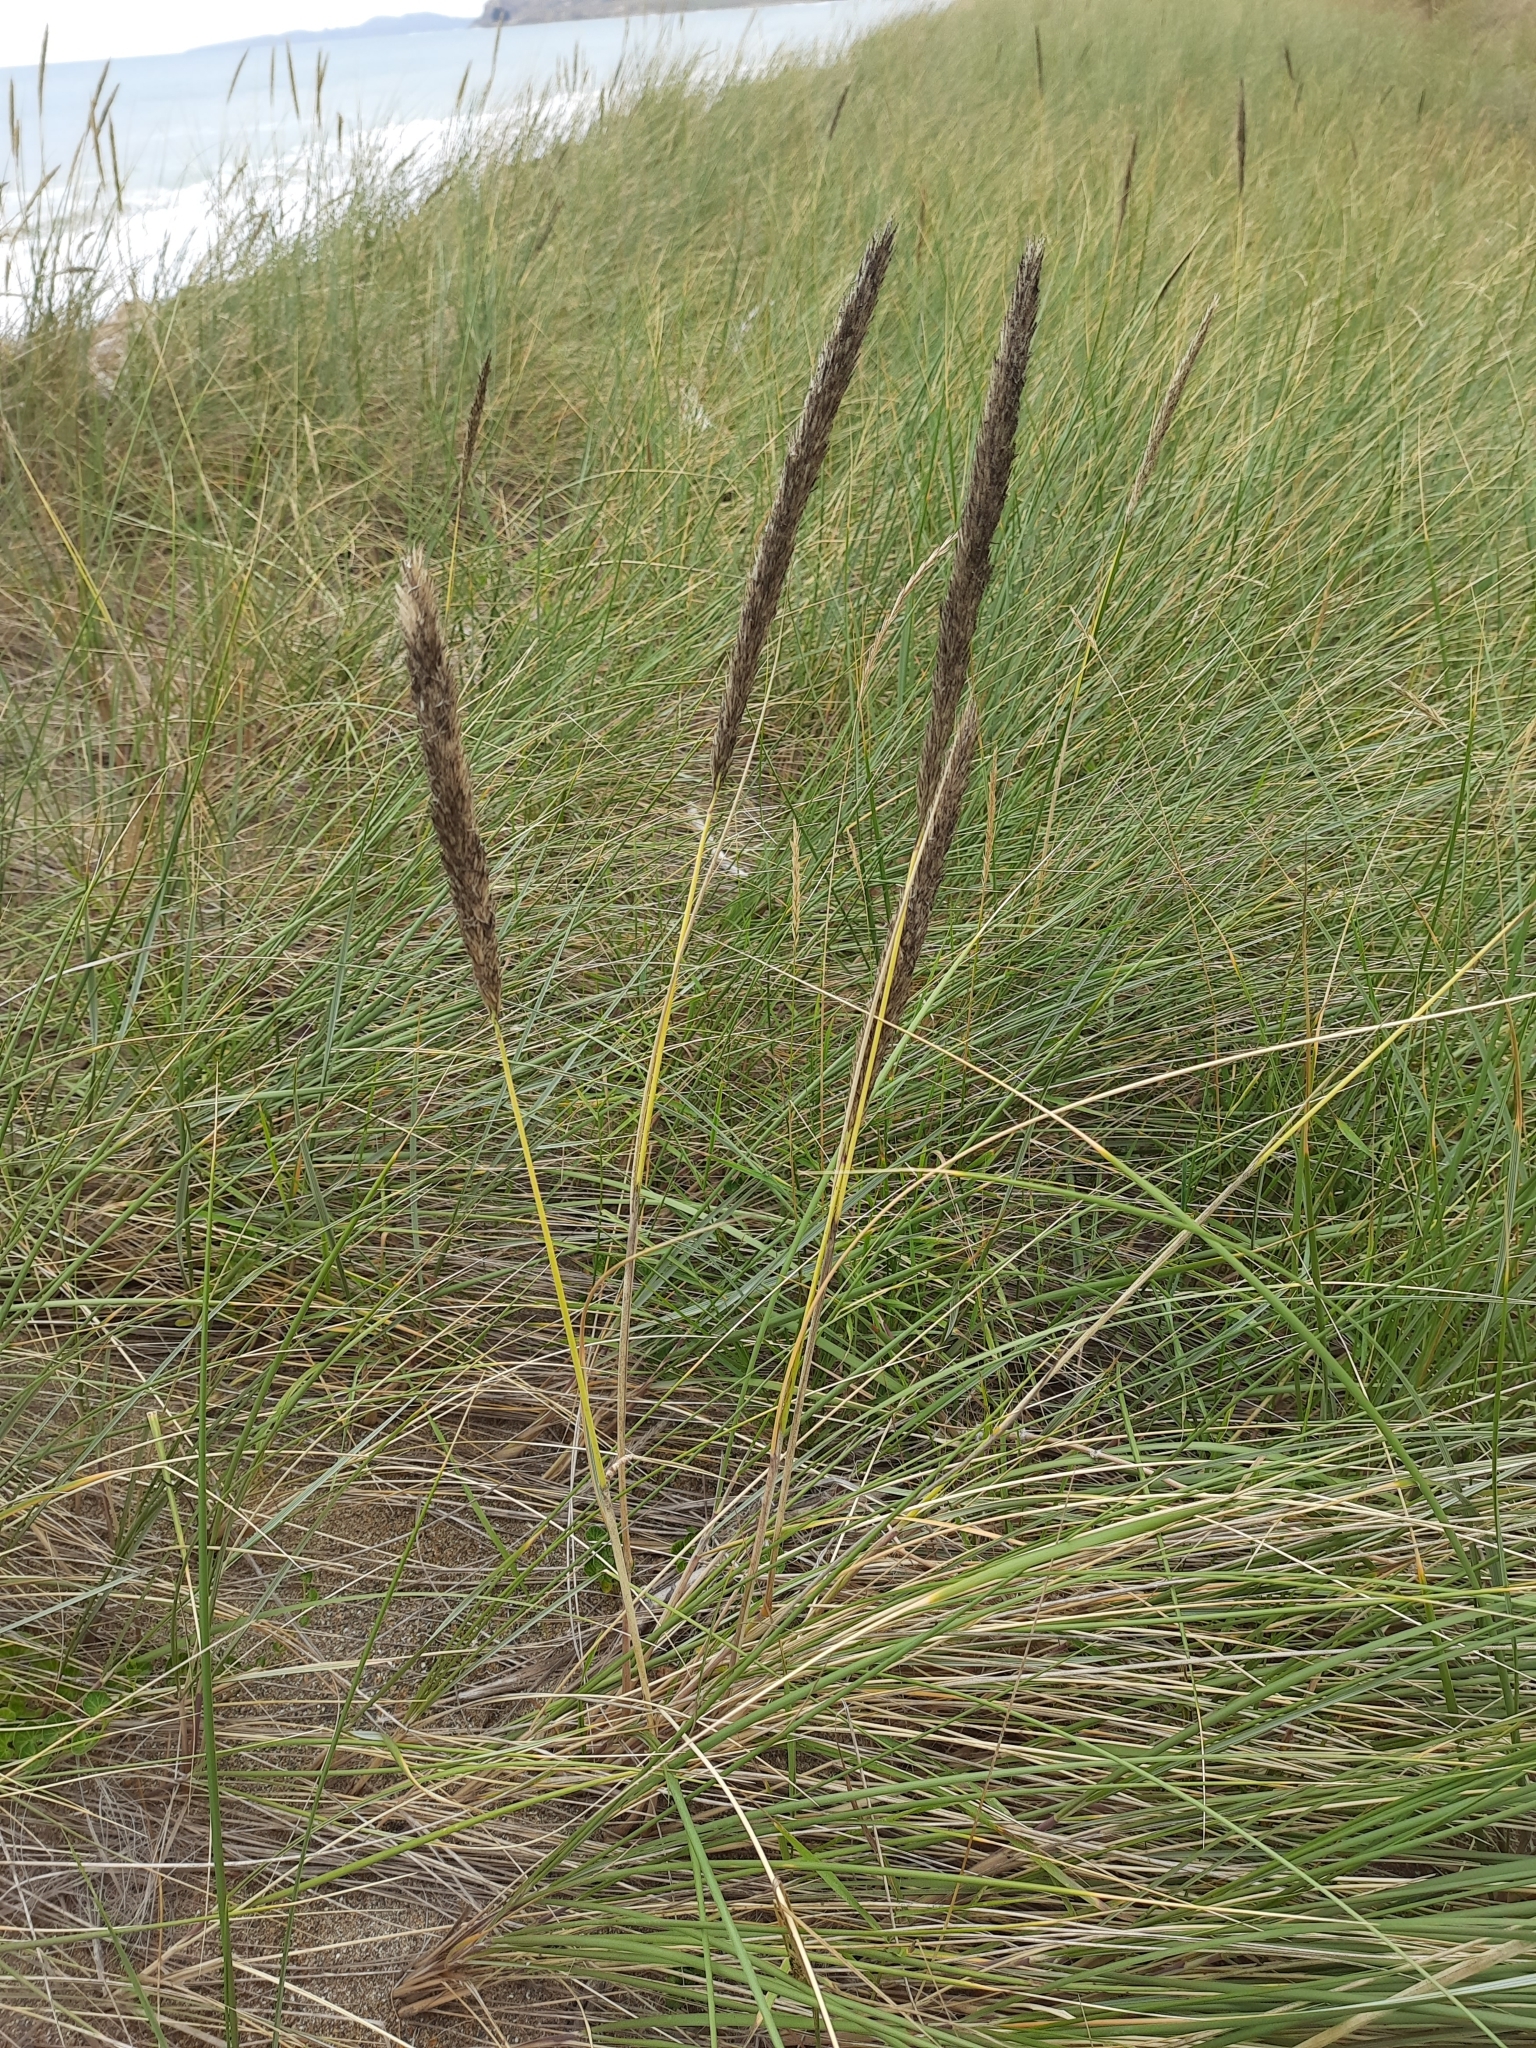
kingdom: Plantae
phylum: Tracheophyta
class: Liliopsida
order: Poales
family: Poaceae
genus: Calamagrostis
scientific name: Calamagrostis arenaria
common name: European beachgrass
